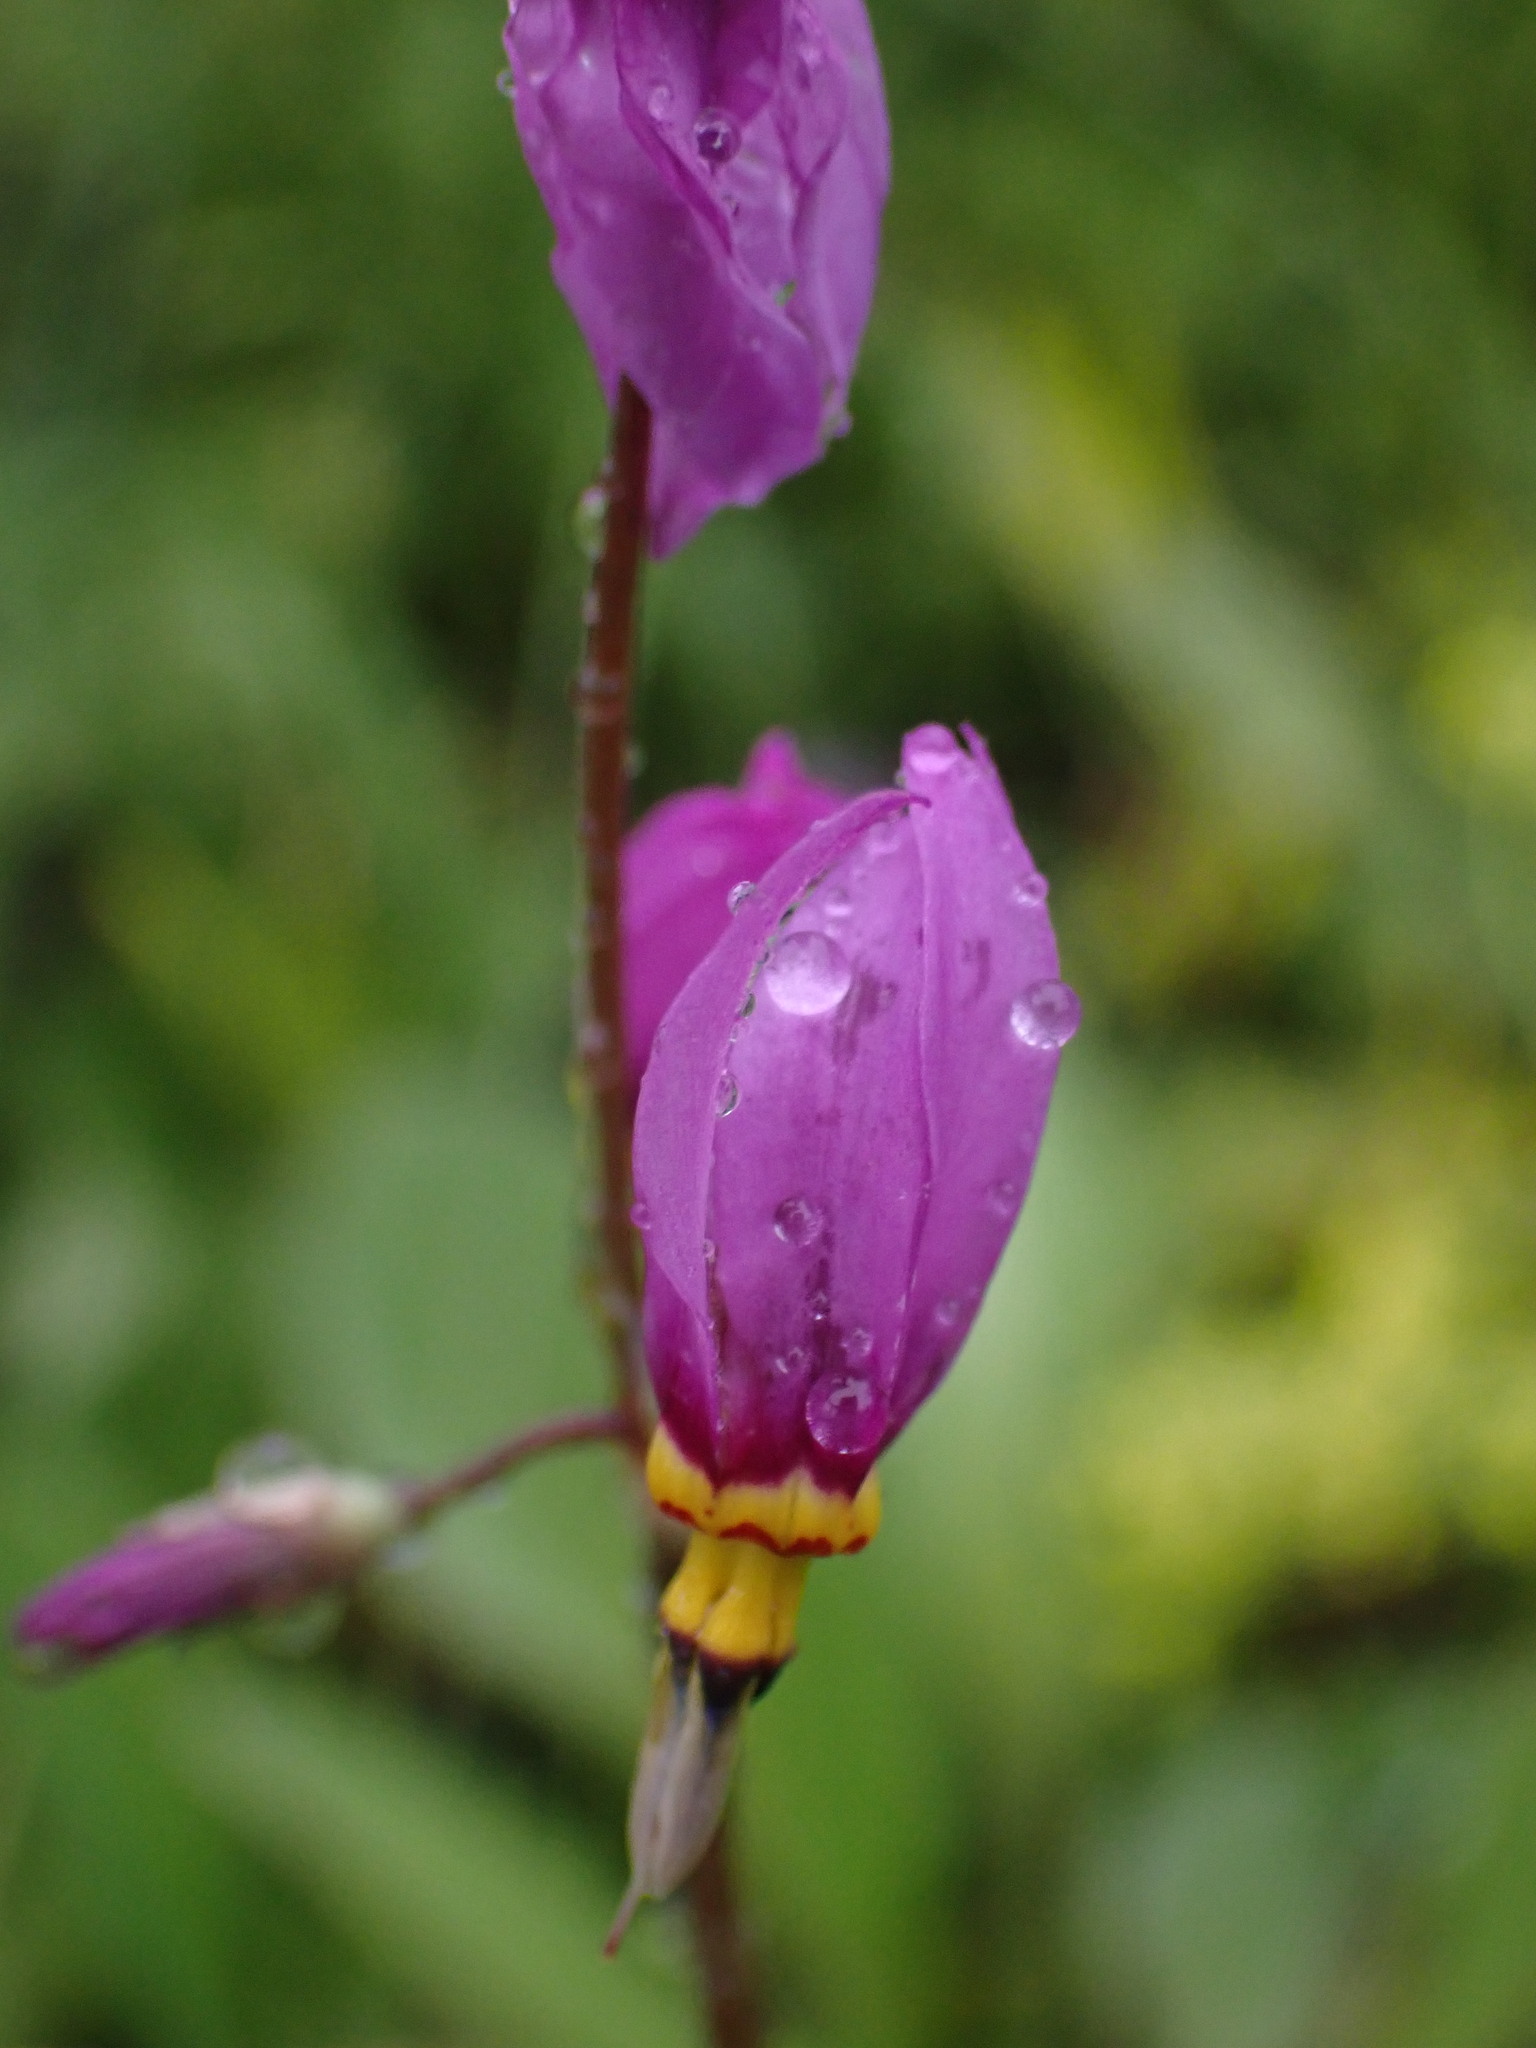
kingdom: Plantae
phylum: Tracheophyta
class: Magnoliopsida
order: Ericales
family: Primulaceae
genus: Dodecatheon
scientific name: Dodecatheon pulchellum
